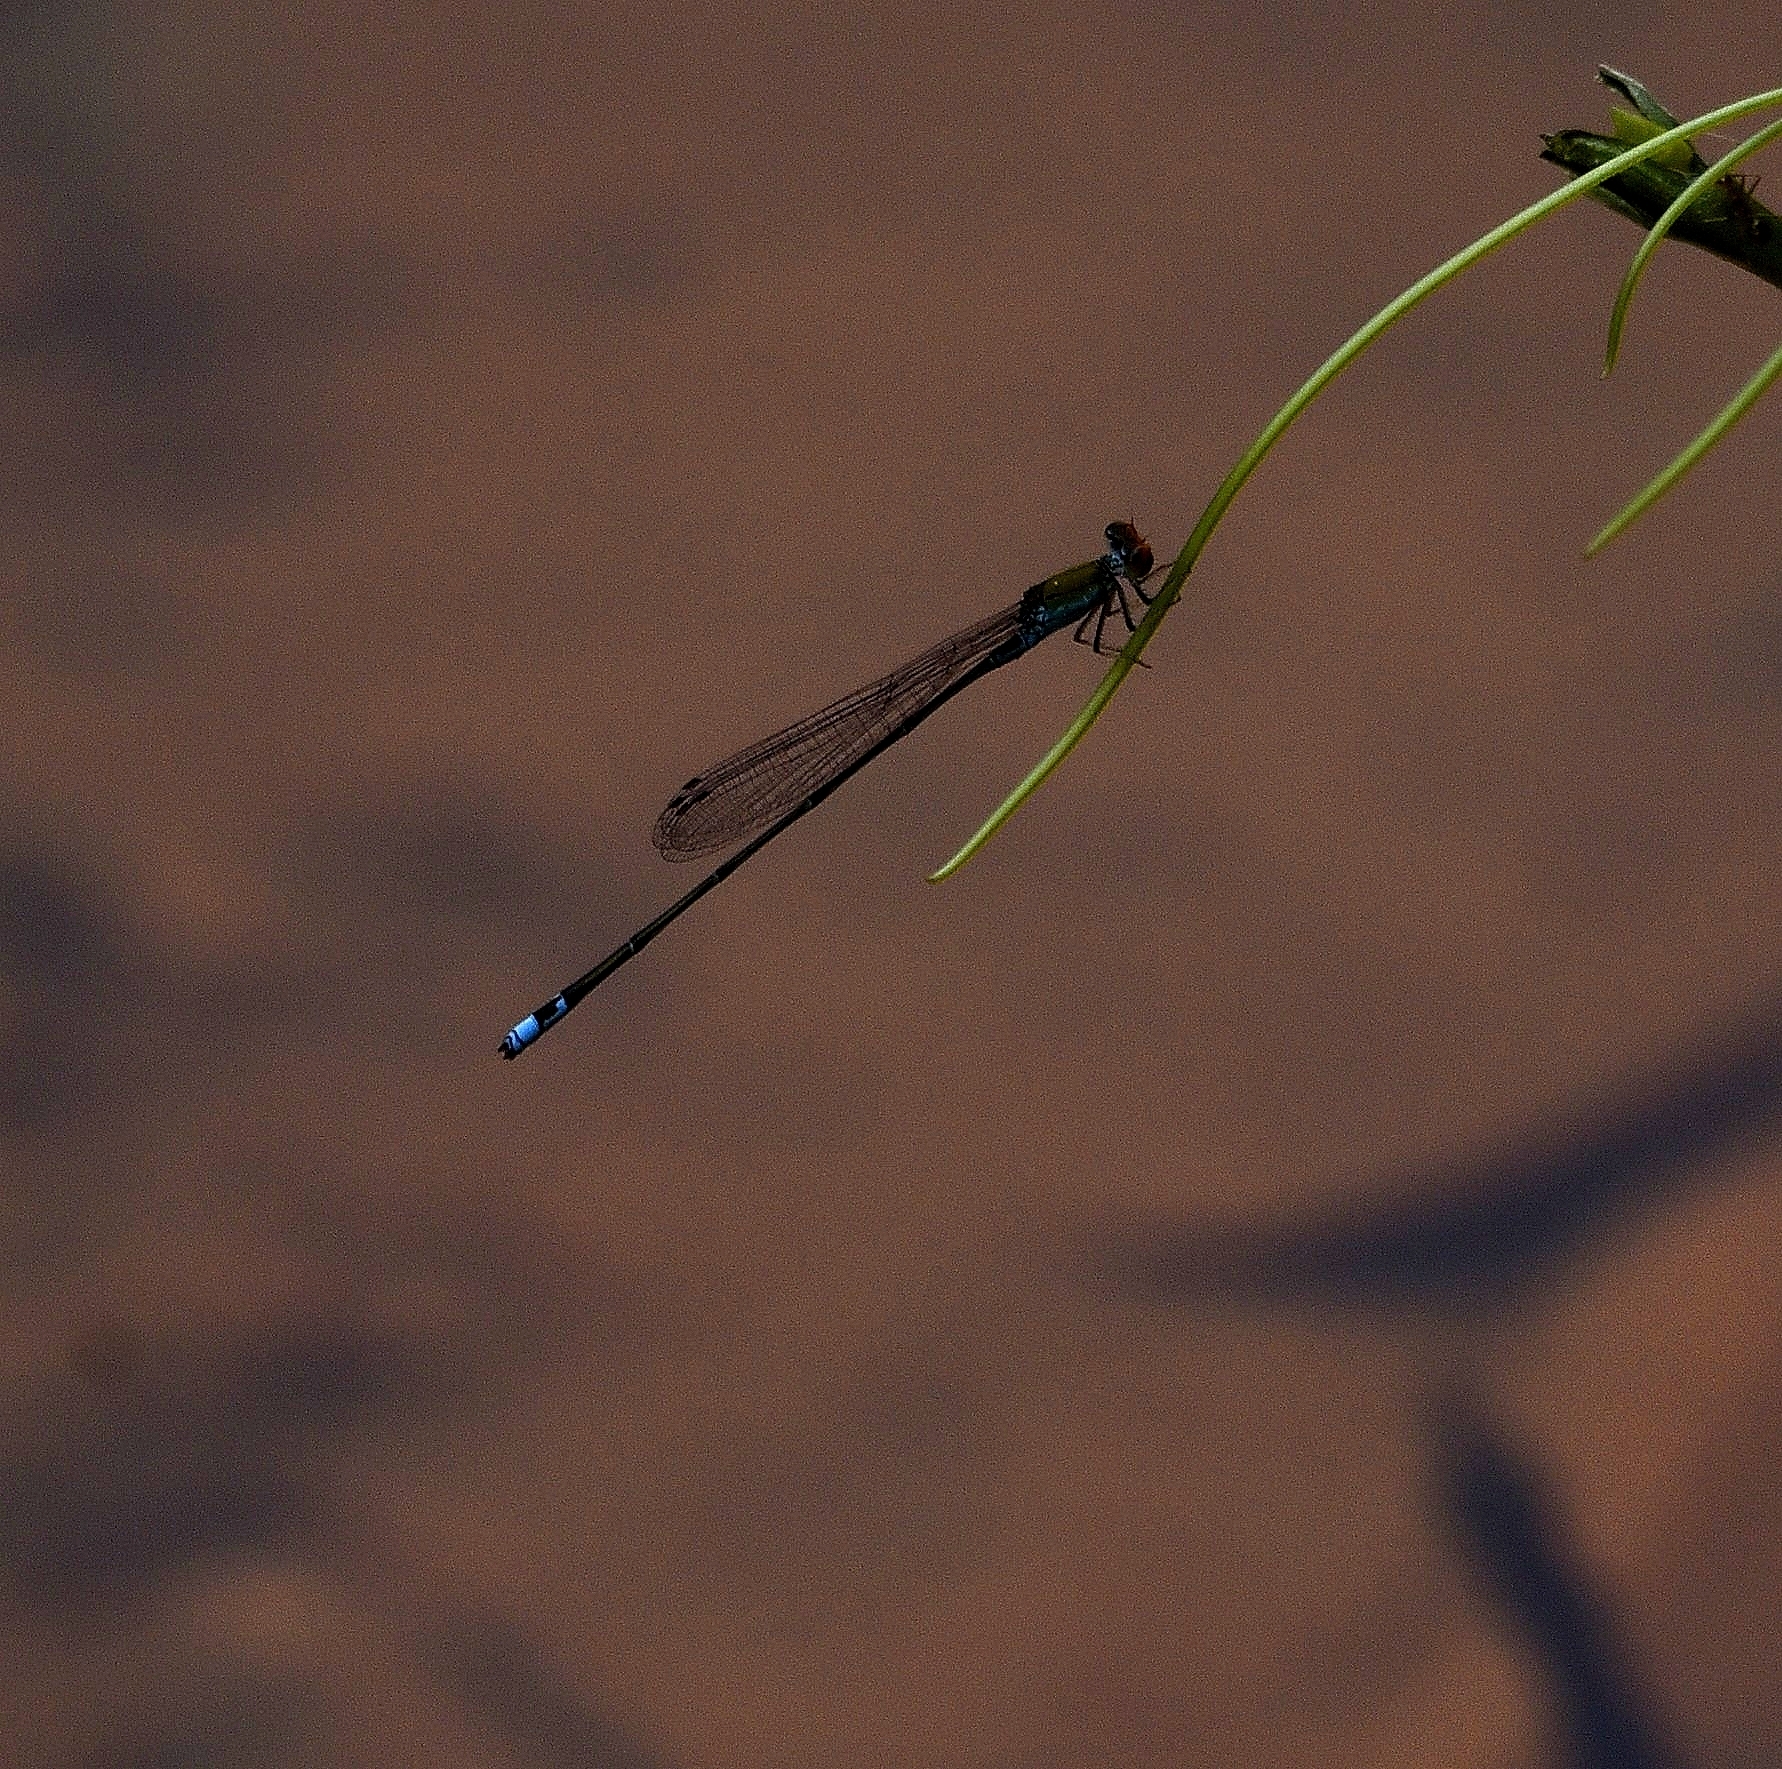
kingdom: Animalia
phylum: Arthropoda
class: Insecta
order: Odonata
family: Coenagrionidae
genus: Pseudagrion
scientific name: Pseudagrion rubriceps
